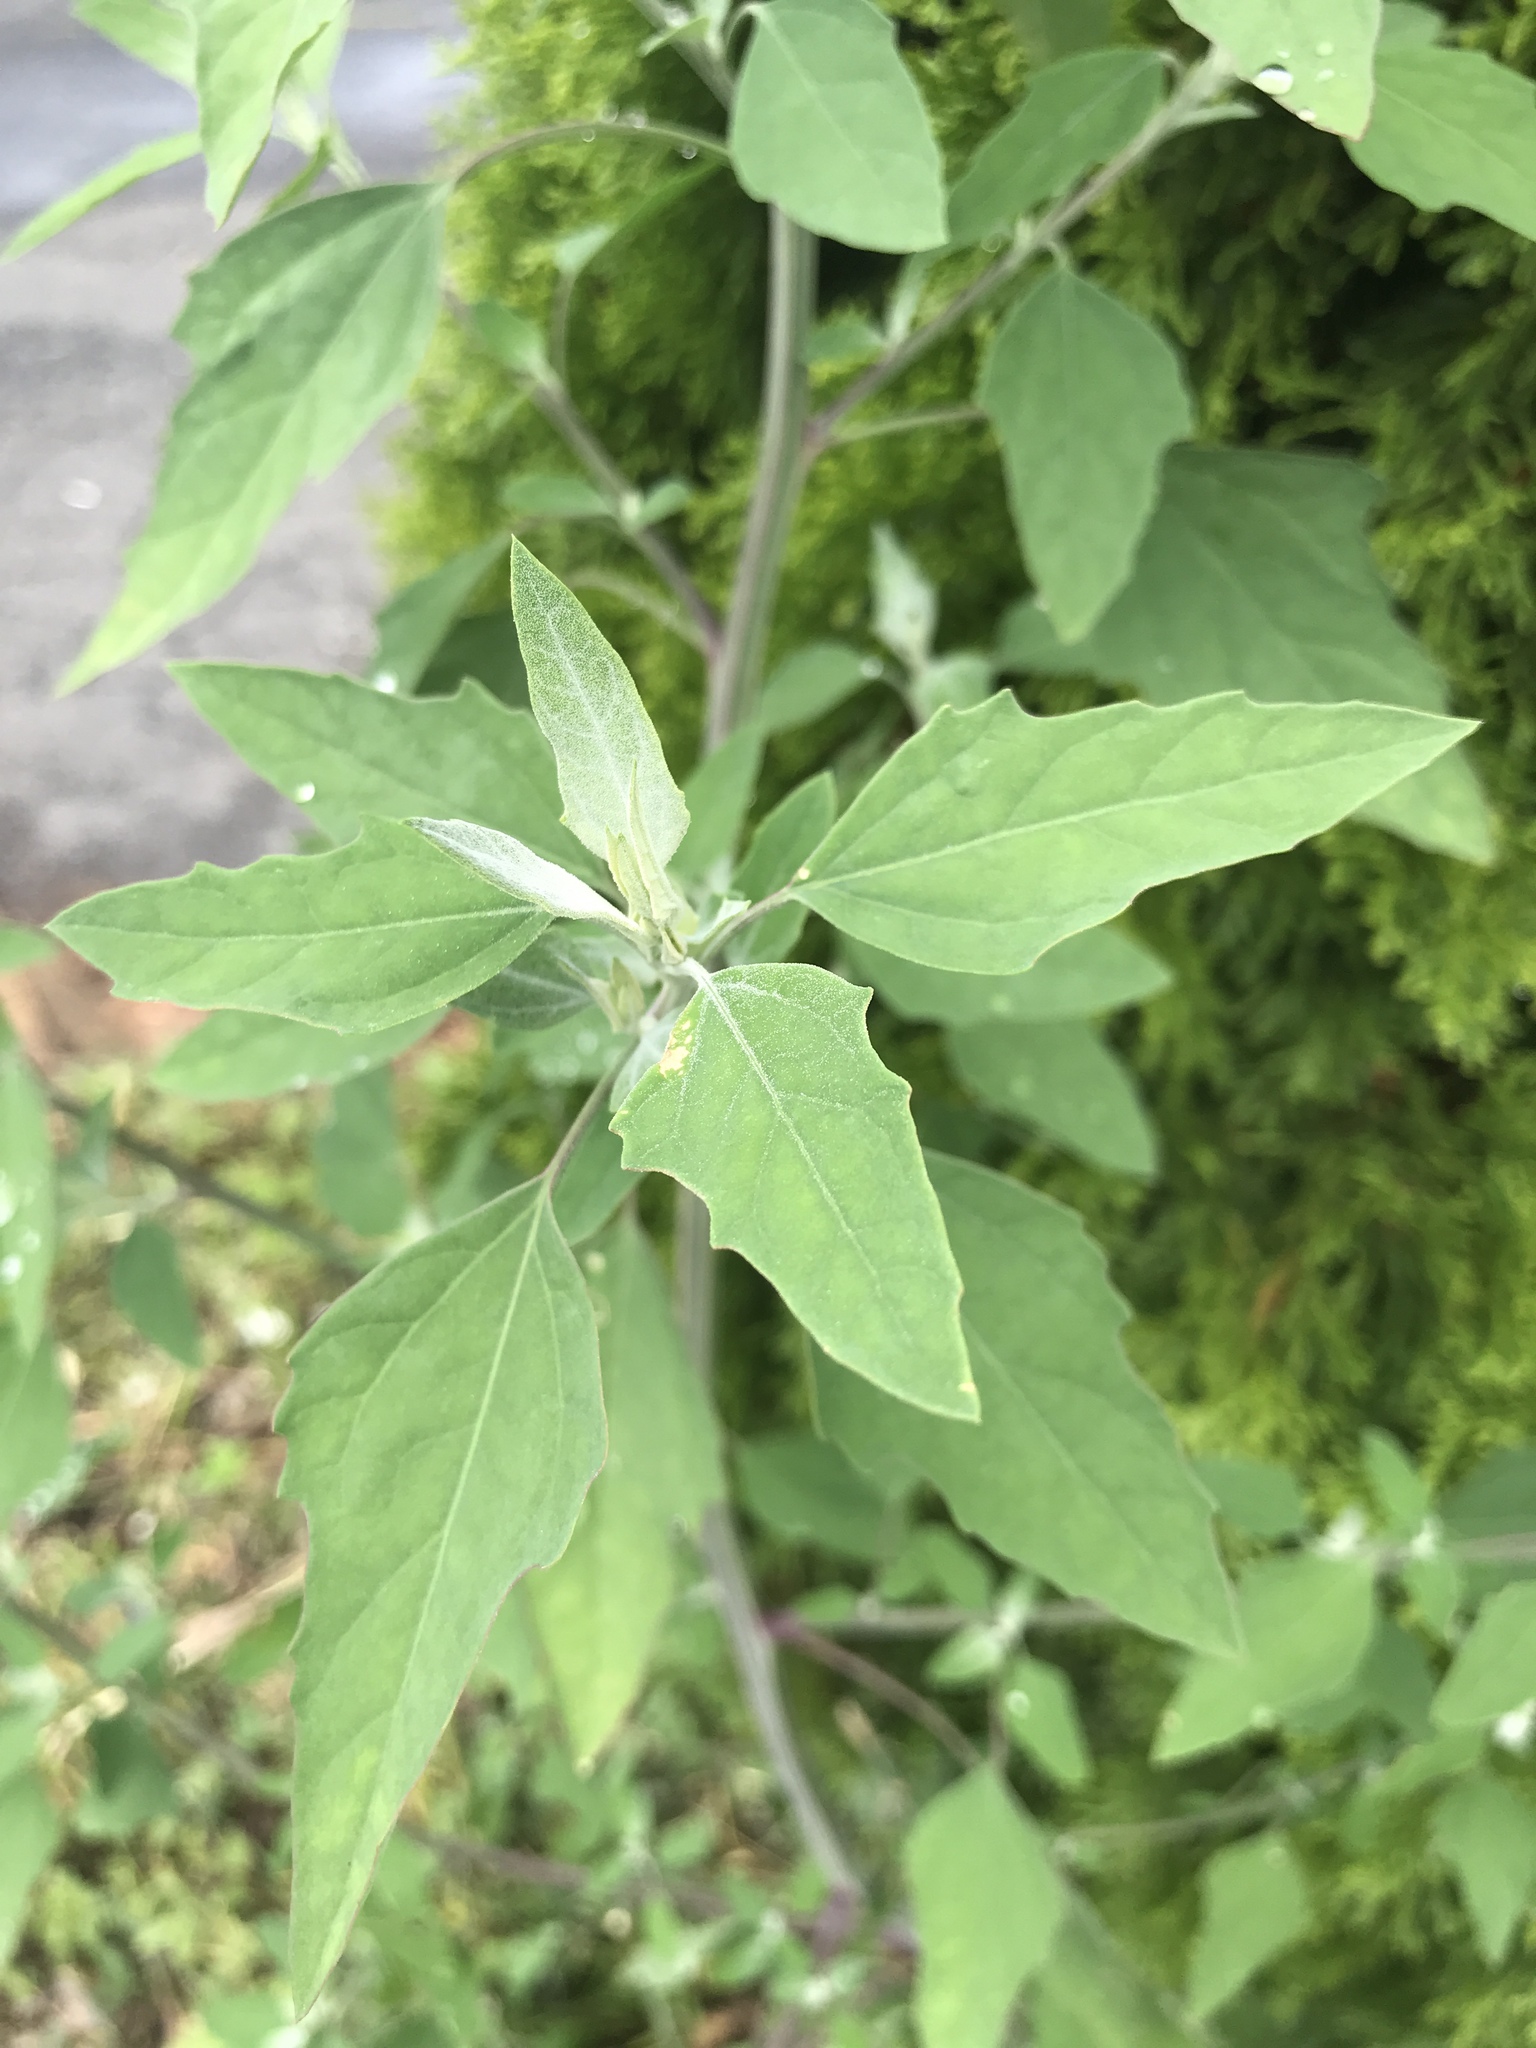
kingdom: Plantae
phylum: Tracheophyta
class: Magnoliopsida
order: Caryophyllales
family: Amaranthaceae
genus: Chenopodium
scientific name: Chenopodium album
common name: Fat-hen
